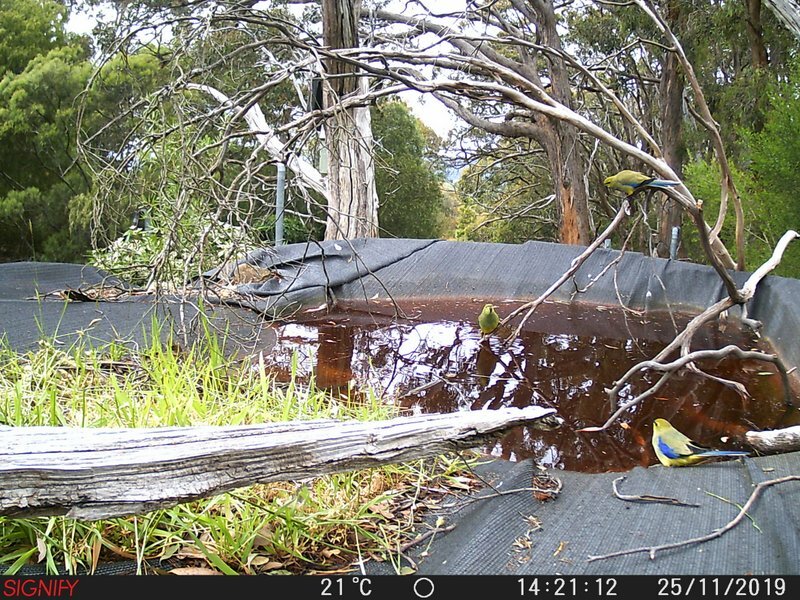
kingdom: Animalia
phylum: Chordata
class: Aves
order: Psittaciformes
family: Psittacidae
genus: Neophema
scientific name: Neophema chrysostoma
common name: Blue-winged parrot
